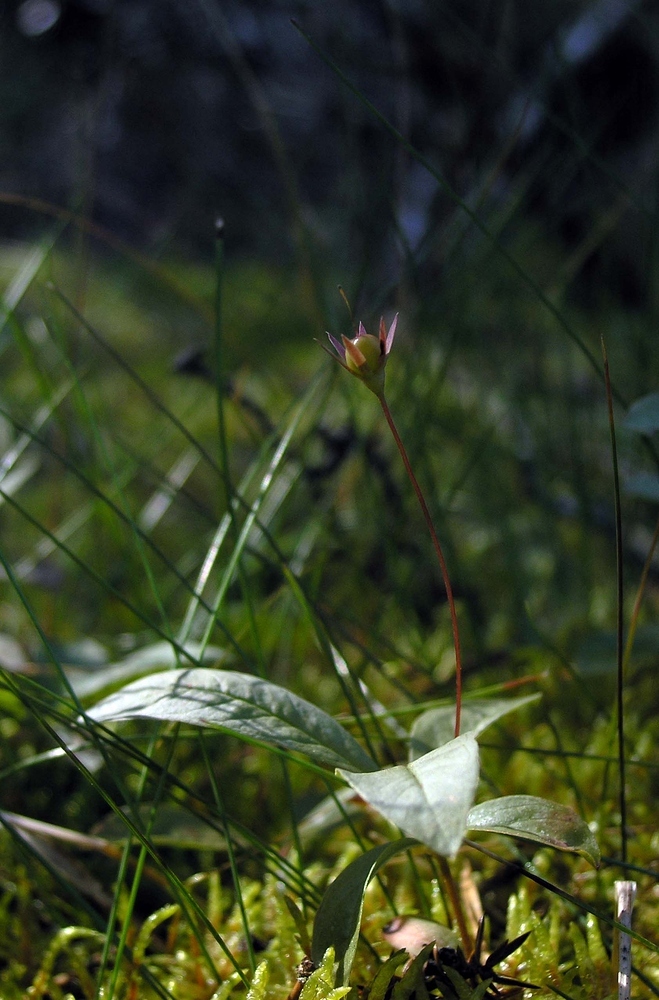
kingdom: Plantae
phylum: Tracheophyta
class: Magnoliopsida
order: Ericales
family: Primulaceae
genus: Lysimachia
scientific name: Lysimachia europaea
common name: Arctic starflower
